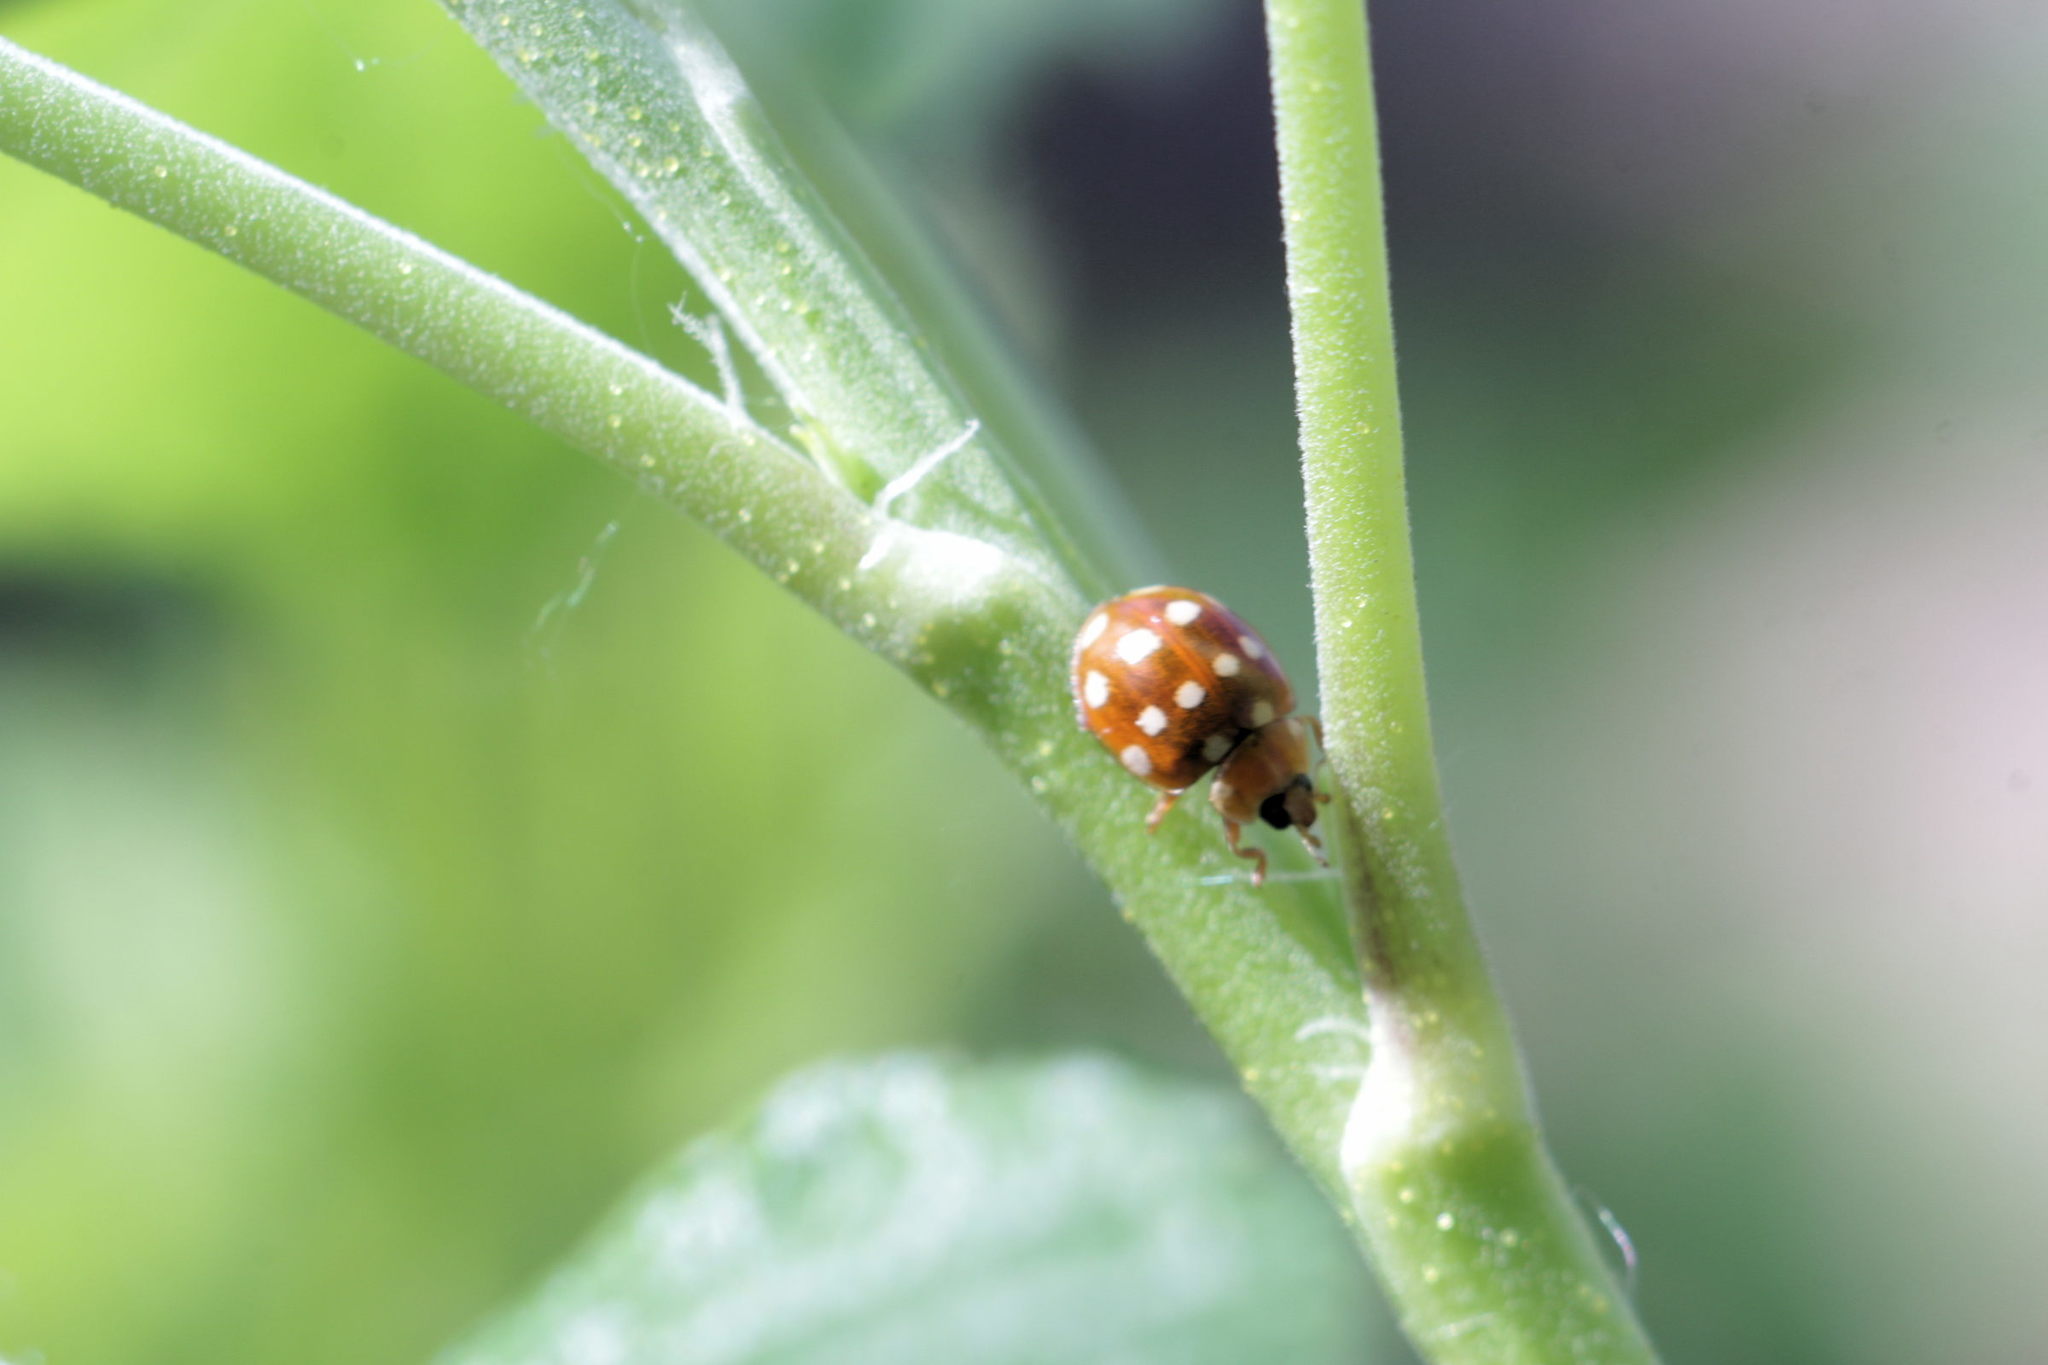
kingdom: Animalia
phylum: Arthropoda
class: Insecta
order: Coleoptera
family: Coccinellidae
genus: Calvia
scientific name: Calvia quatuordecimguttata
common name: Cream-spot ladybird
